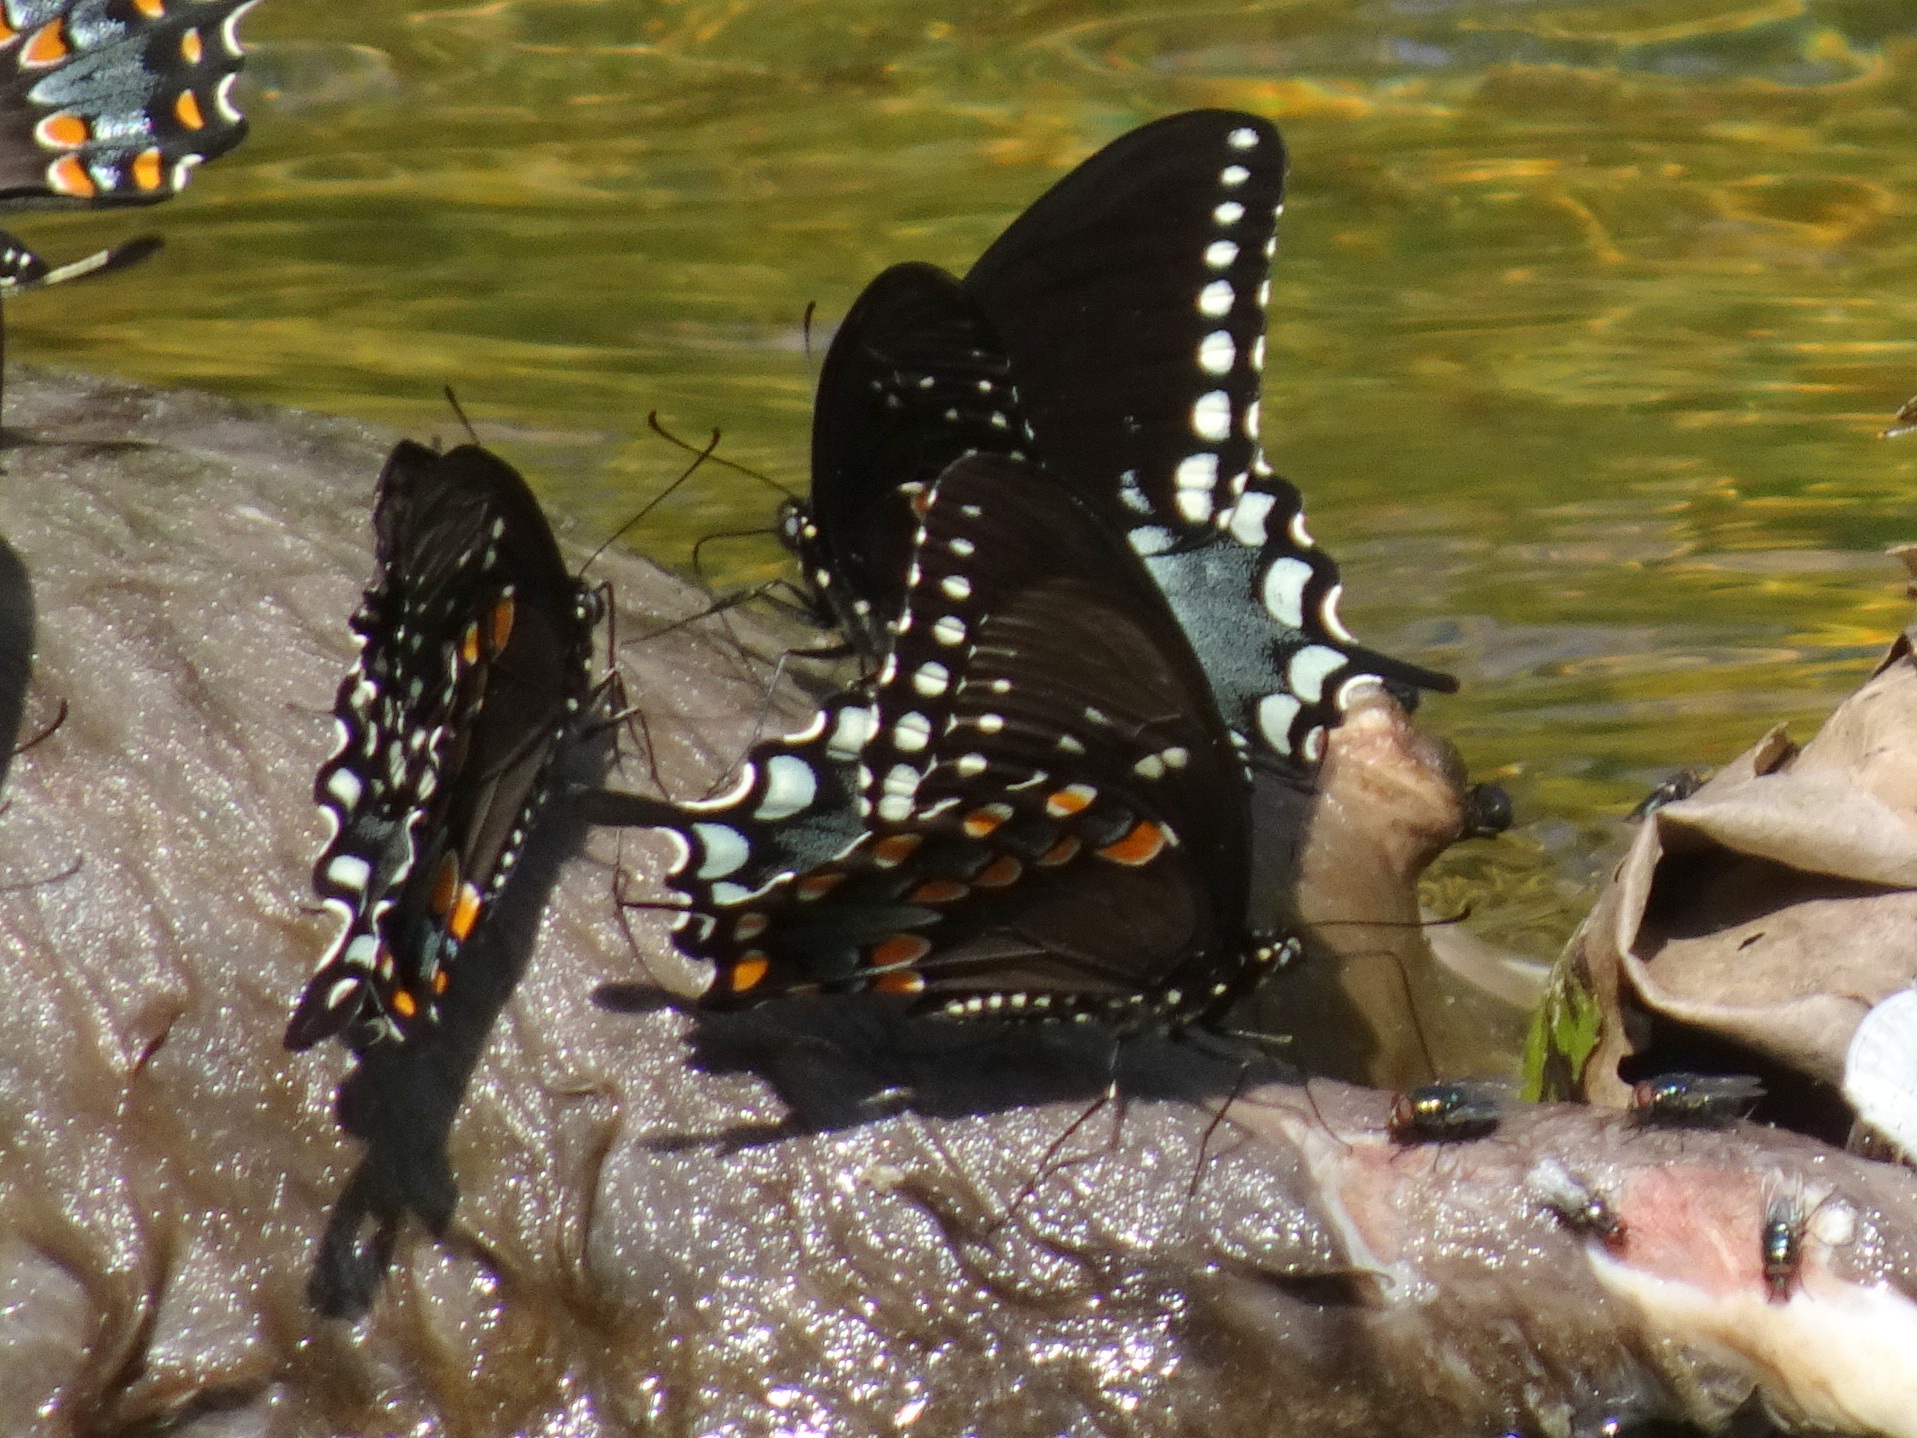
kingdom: Animalia
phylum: Arthropoda
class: Insecta
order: Lepidoptera
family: Papilionidae
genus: Papilio
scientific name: Papilio troilus
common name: Spicebush swallowtail
